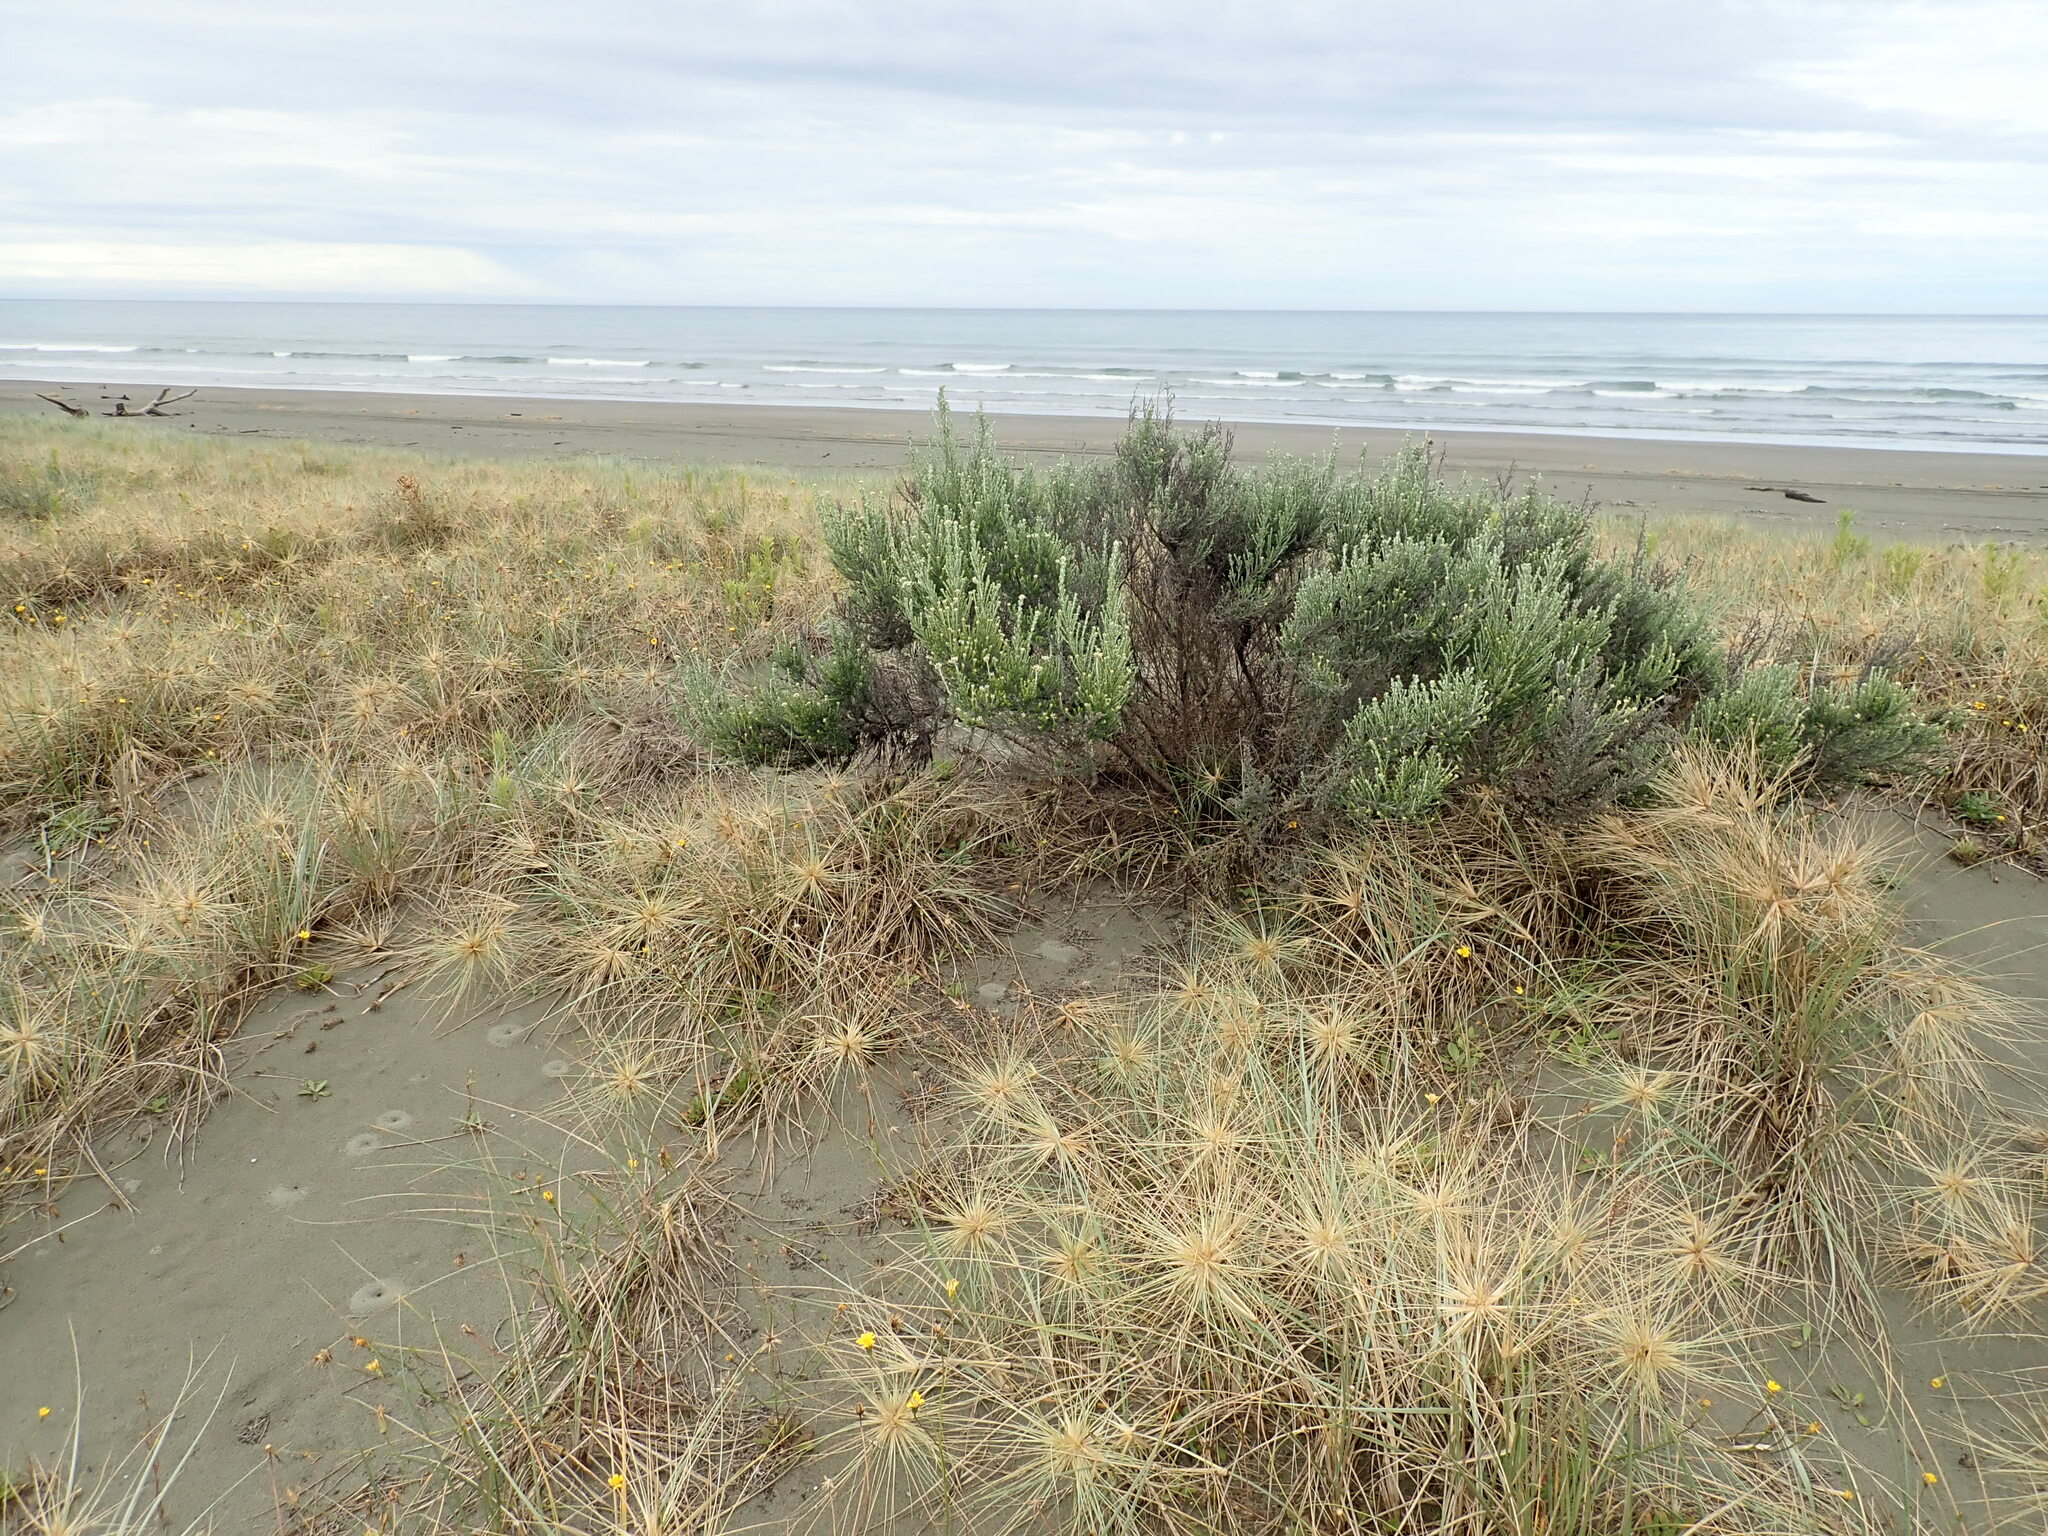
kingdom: Plantae
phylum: Tracheophyta
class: Magnoliopsida
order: Asterales
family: Asteraceae
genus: Ozothamnus
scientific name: Ozothamnus leptophyllus
